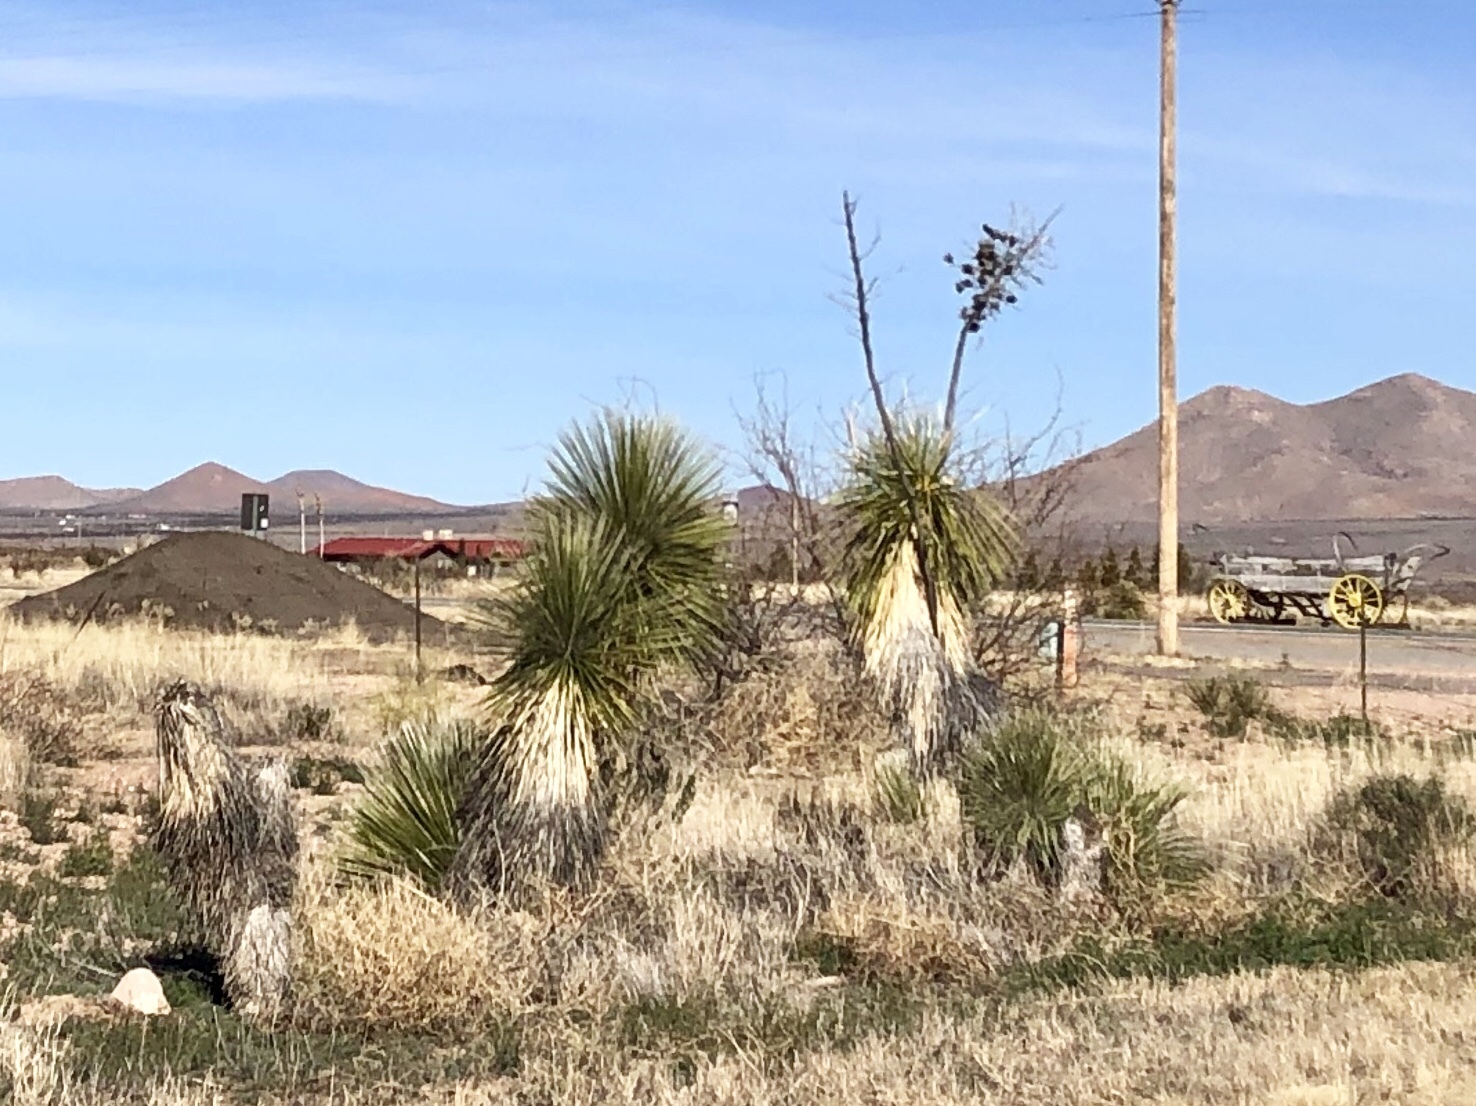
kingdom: Plantae
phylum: Tracheophyta
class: Liliopsida
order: Asparagales
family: Asparagaceae
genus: Yucca
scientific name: Yucca elata
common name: Palmella
